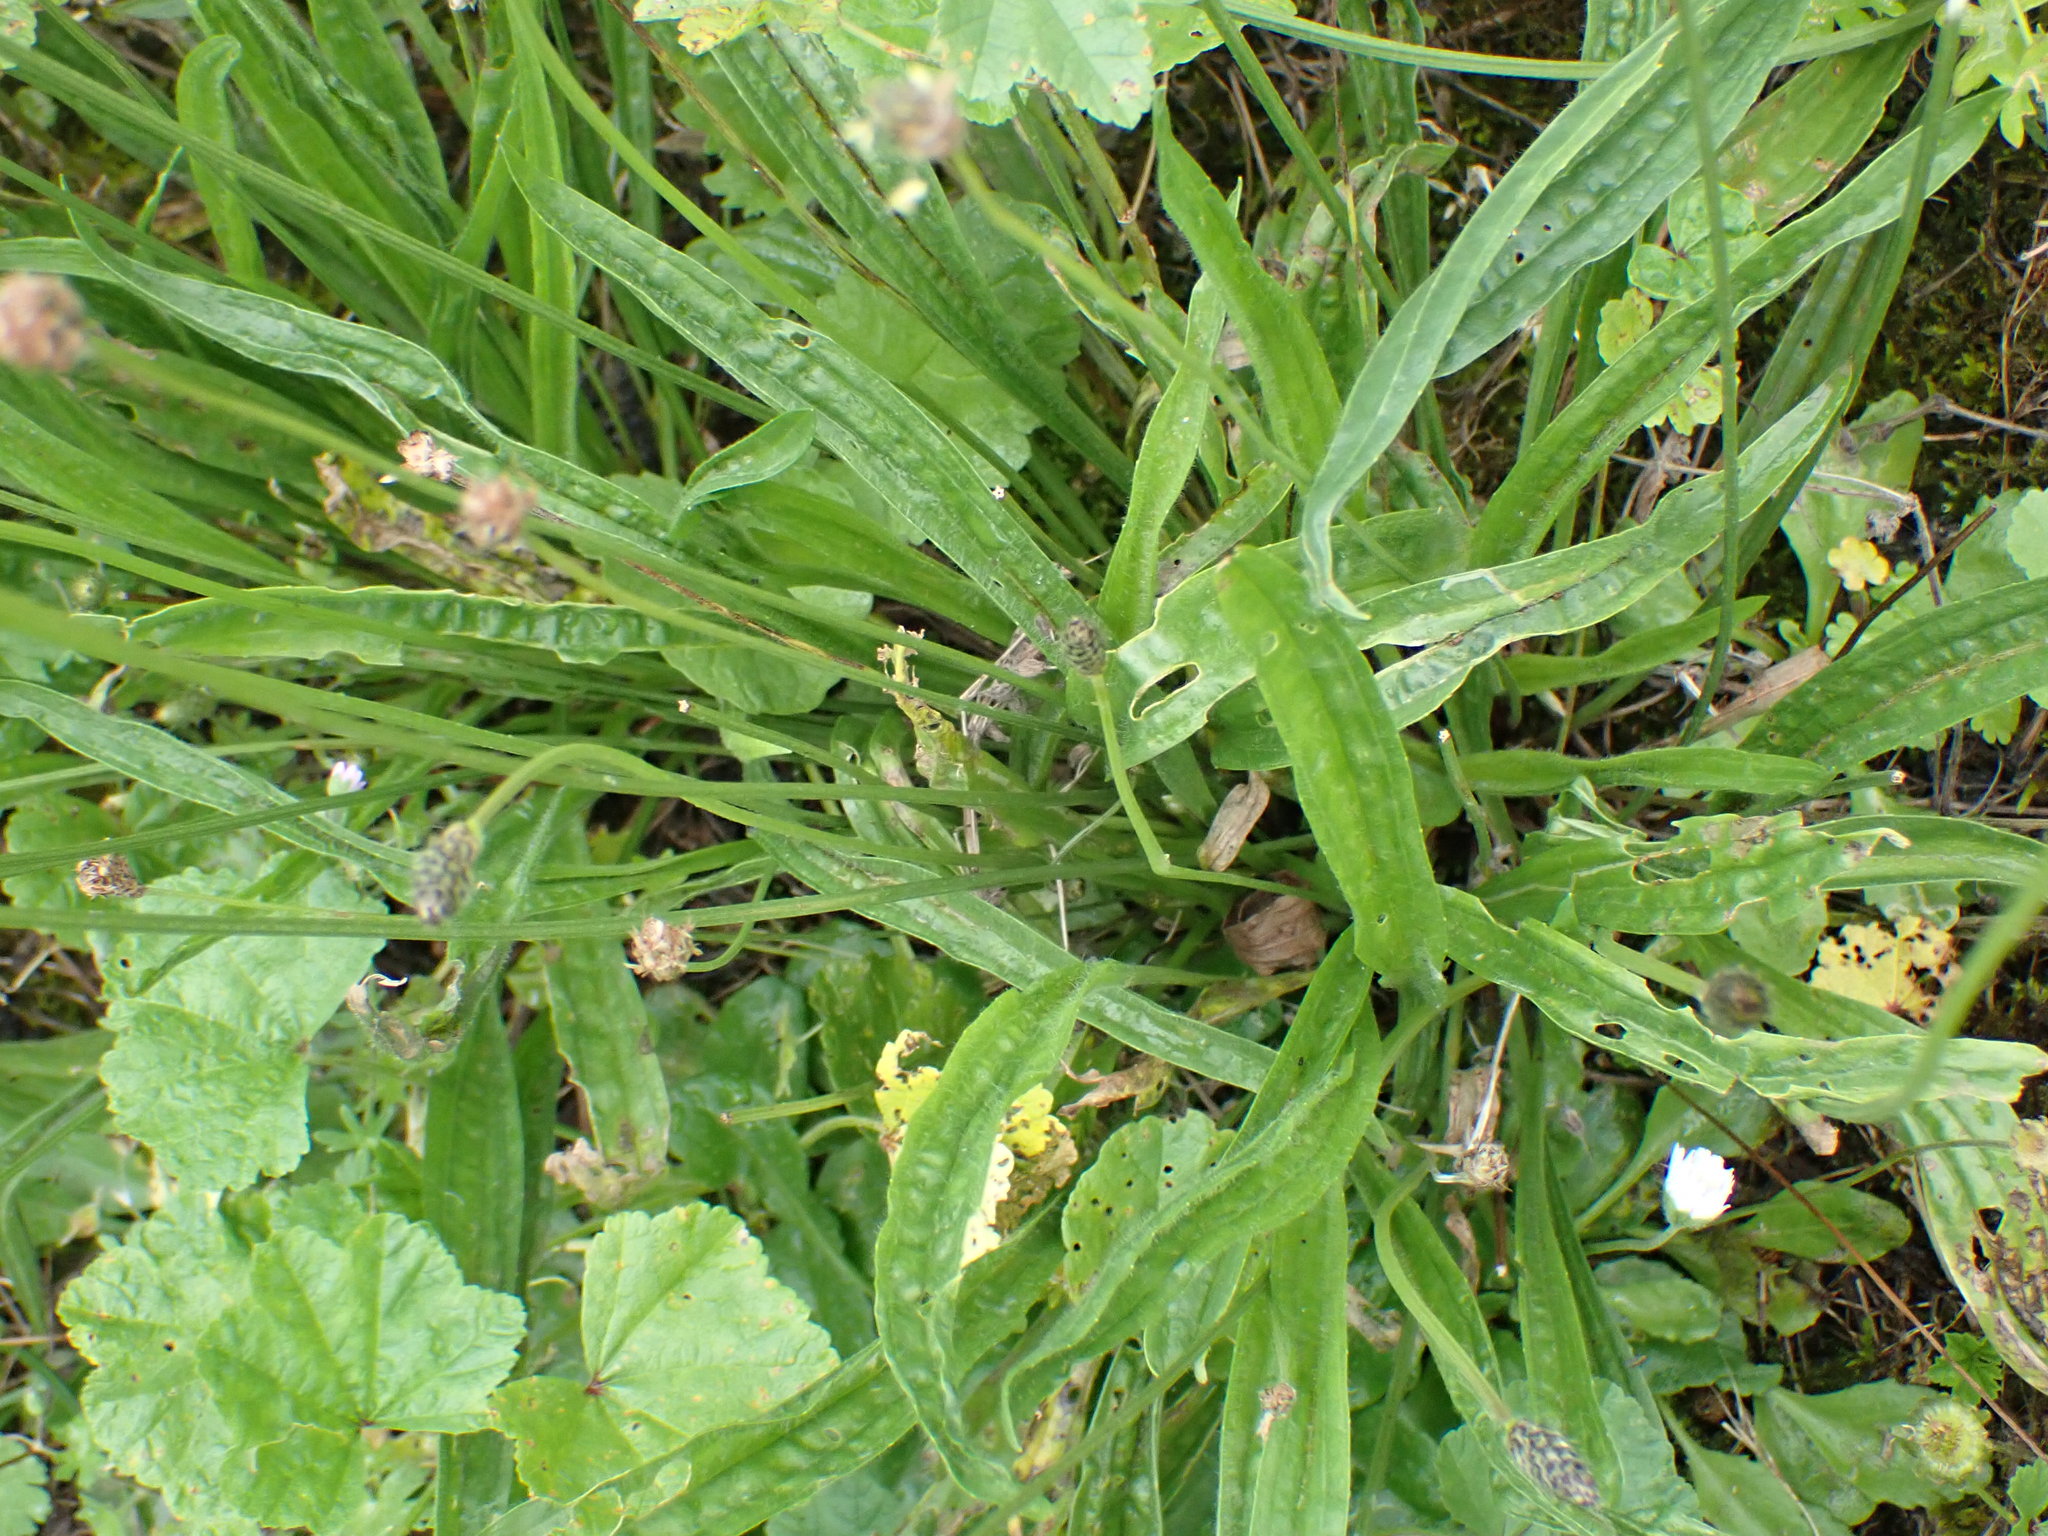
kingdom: Plantae
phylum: Tracheophyta
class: Magnoliopsida
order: Lamiales
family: Plantaginaceae
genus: Plantago
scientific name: Plantago lanceolata
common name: Ribwort plantain
